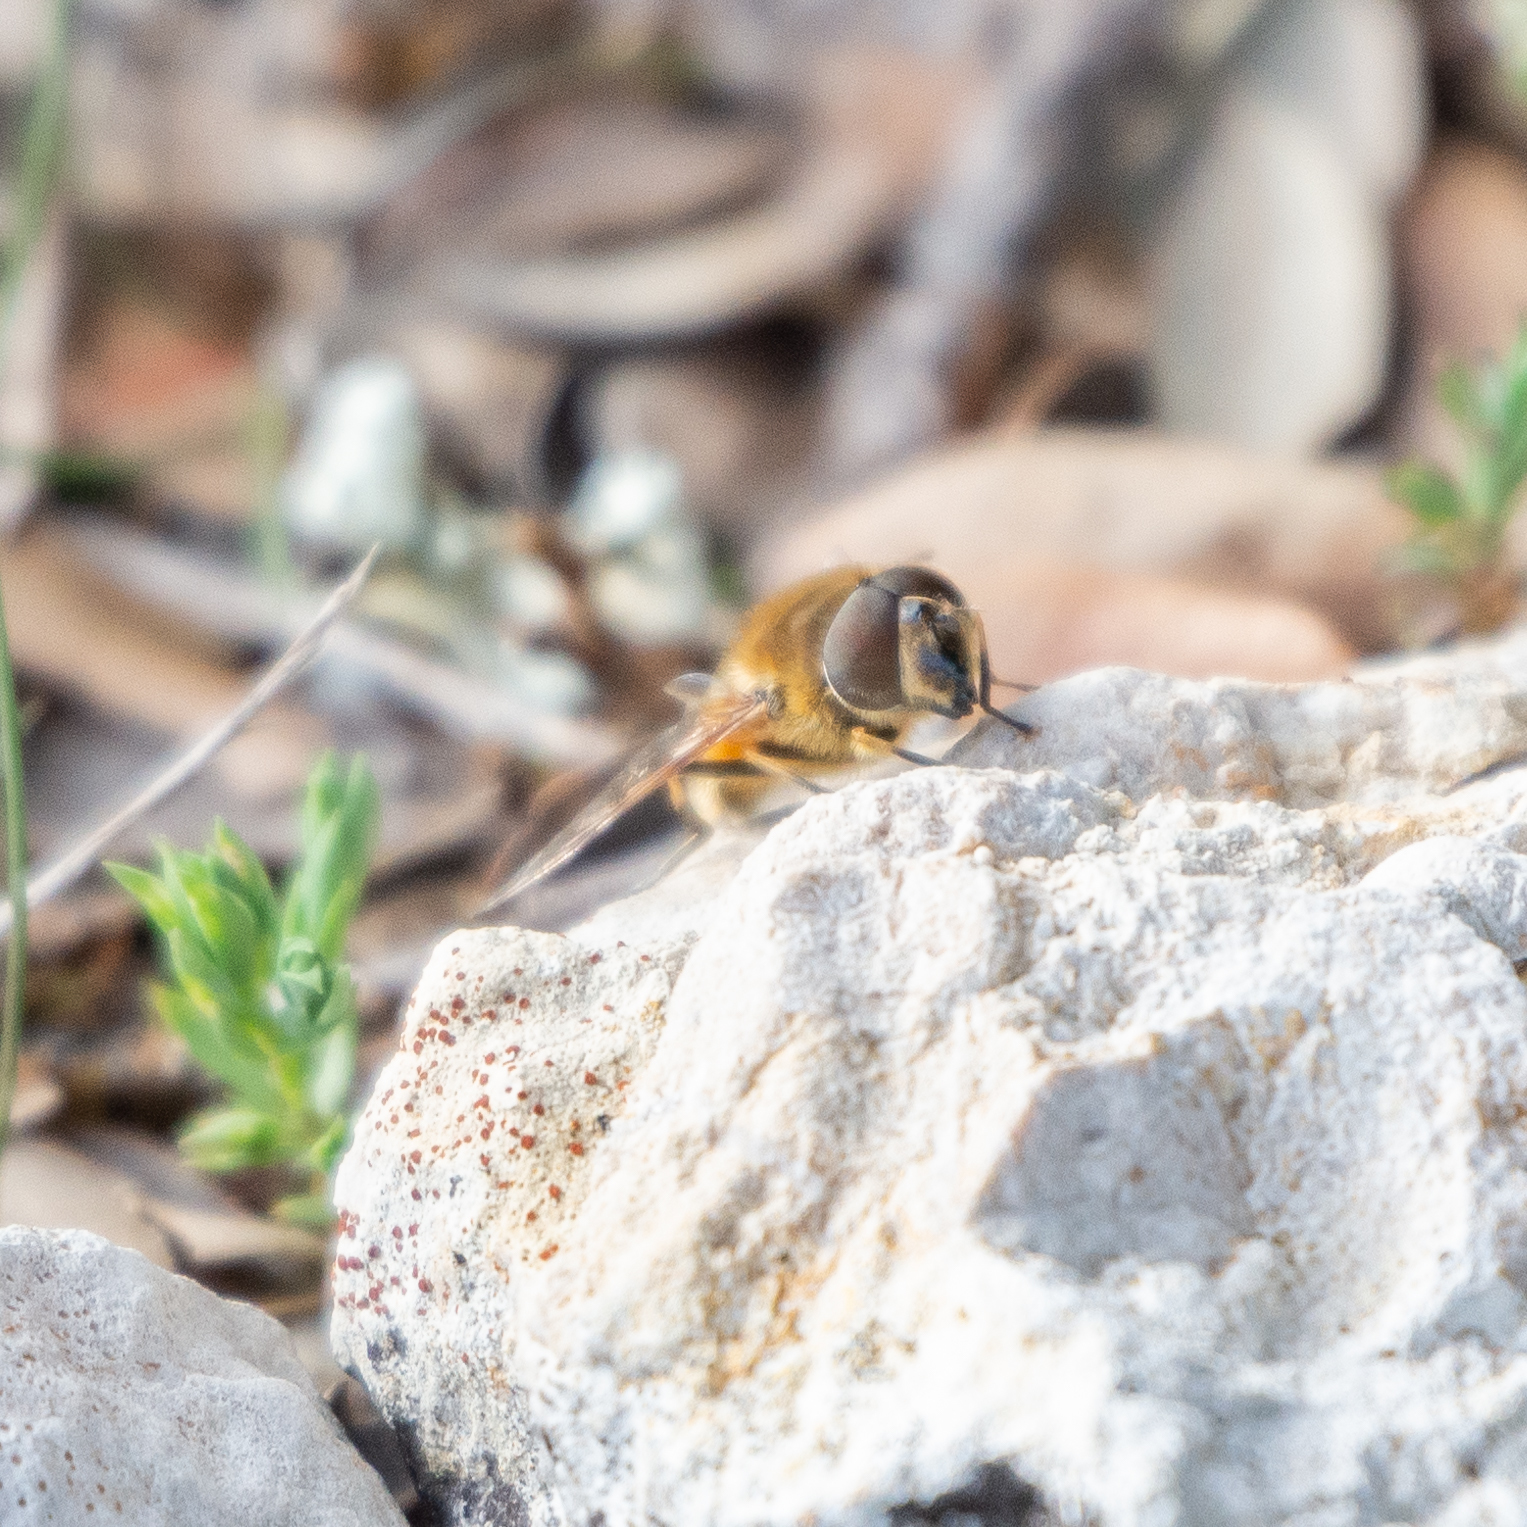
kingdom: Animalia
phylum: Arthropoda
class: Insecta
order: Diptera
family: Syrphidae
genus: Eristalis
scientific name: Eristalis pertinax
